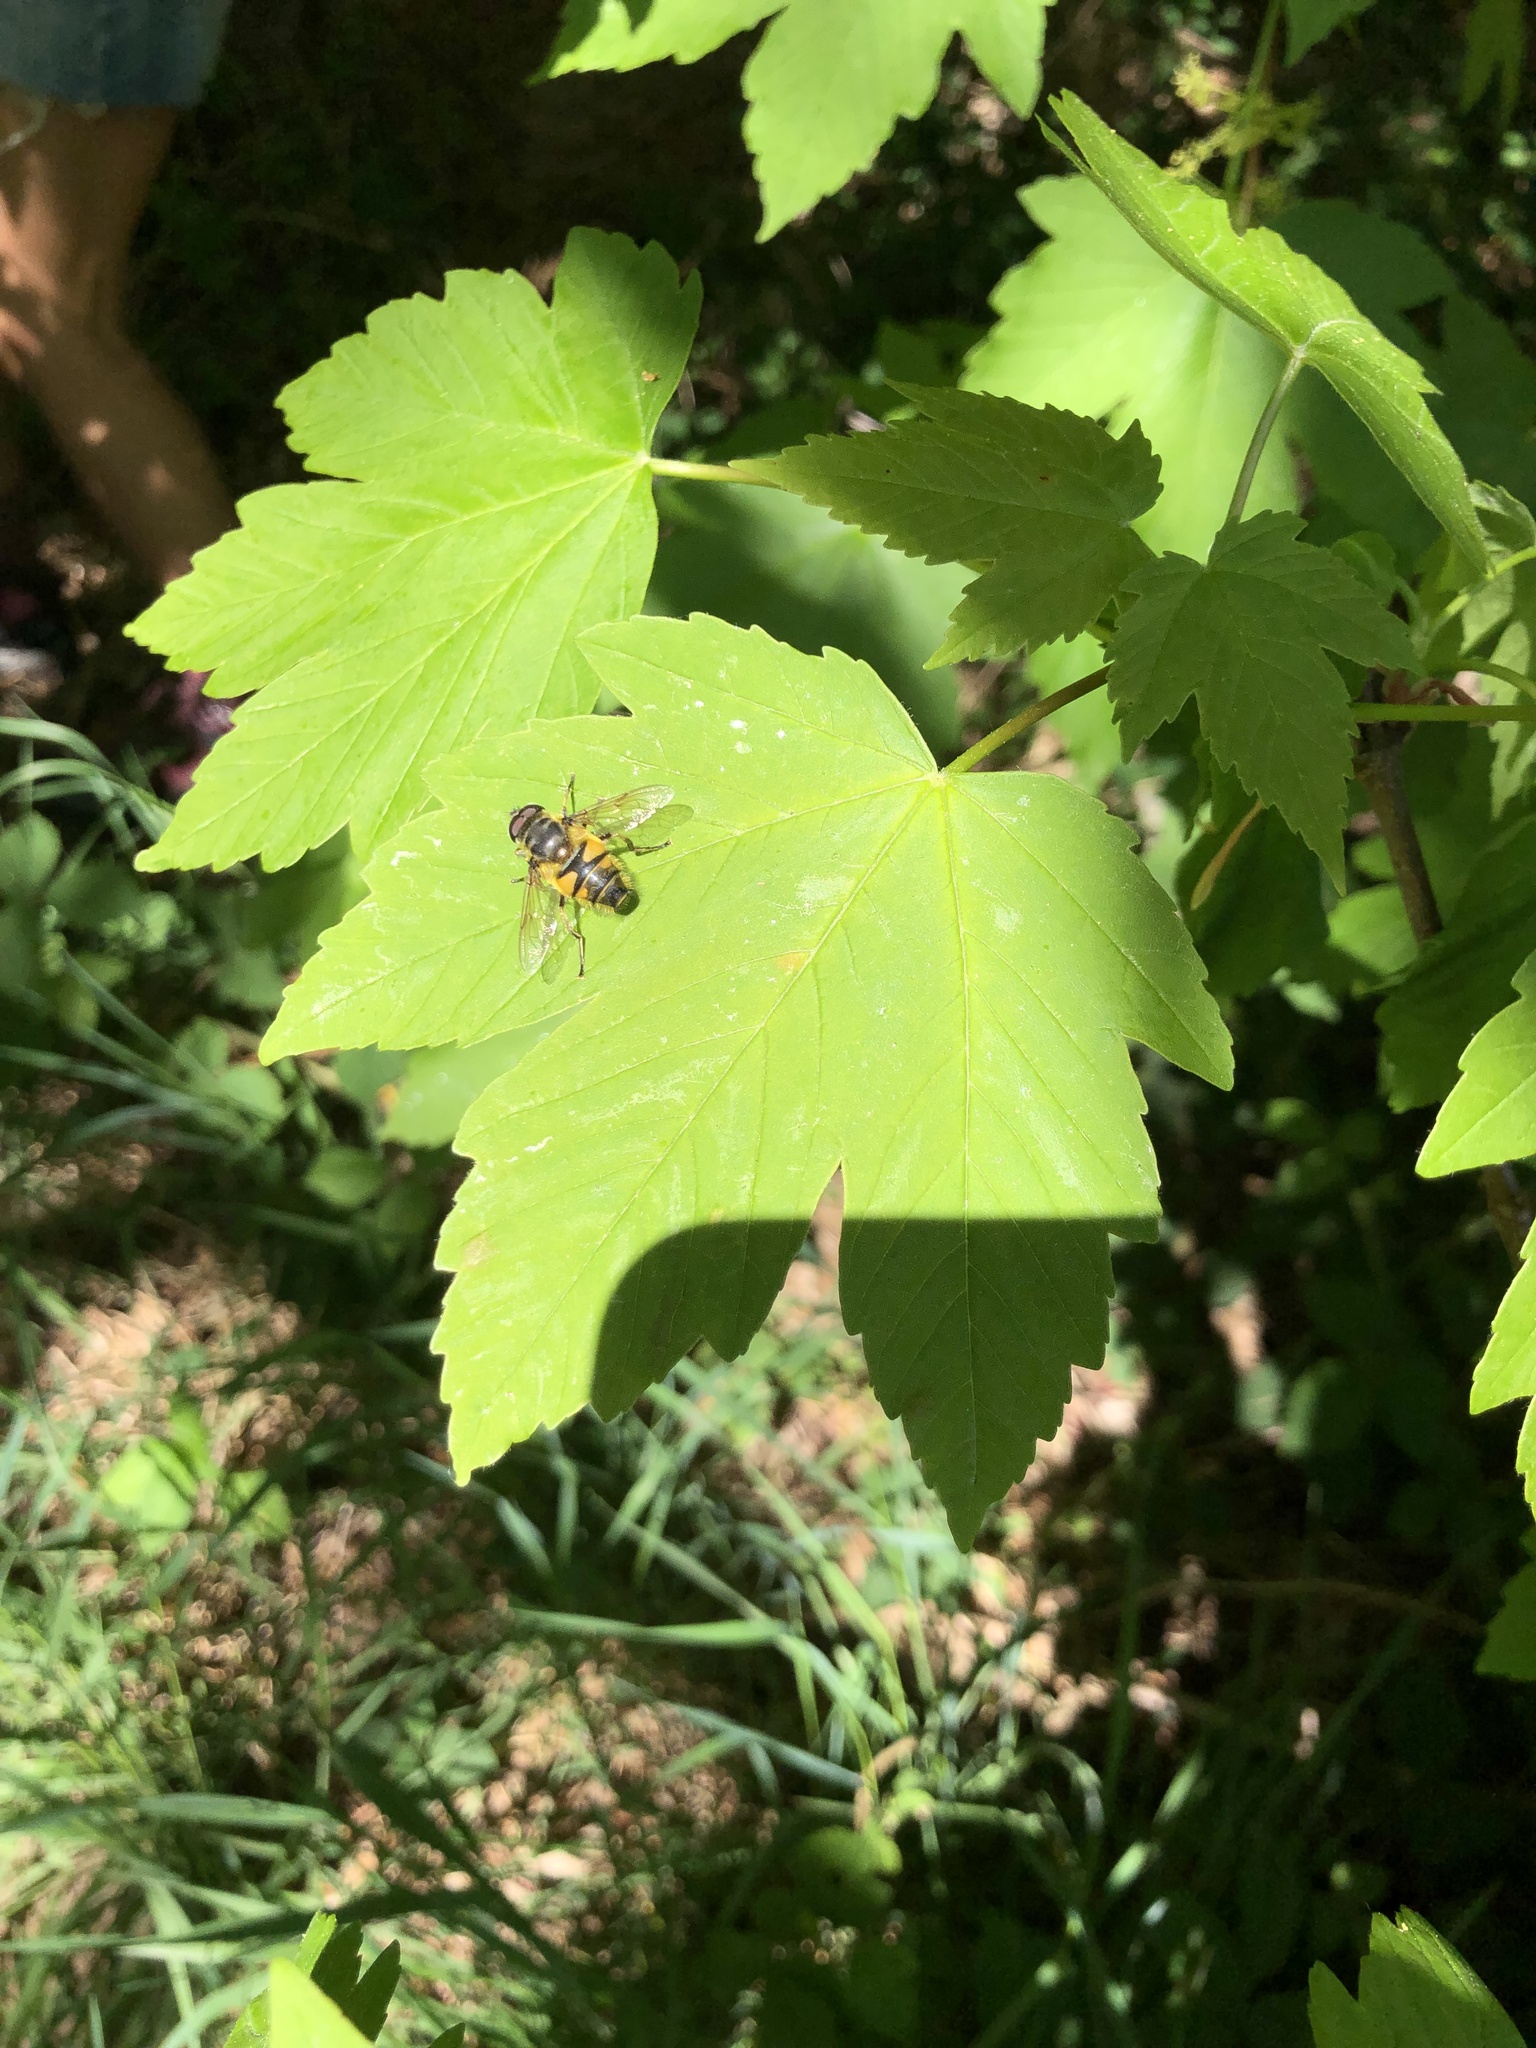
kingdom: Animalia
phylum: Arthropoda
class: Insecta
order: Diptera
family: Syrphidae
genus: Myathropa
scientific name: Myathropa florea
